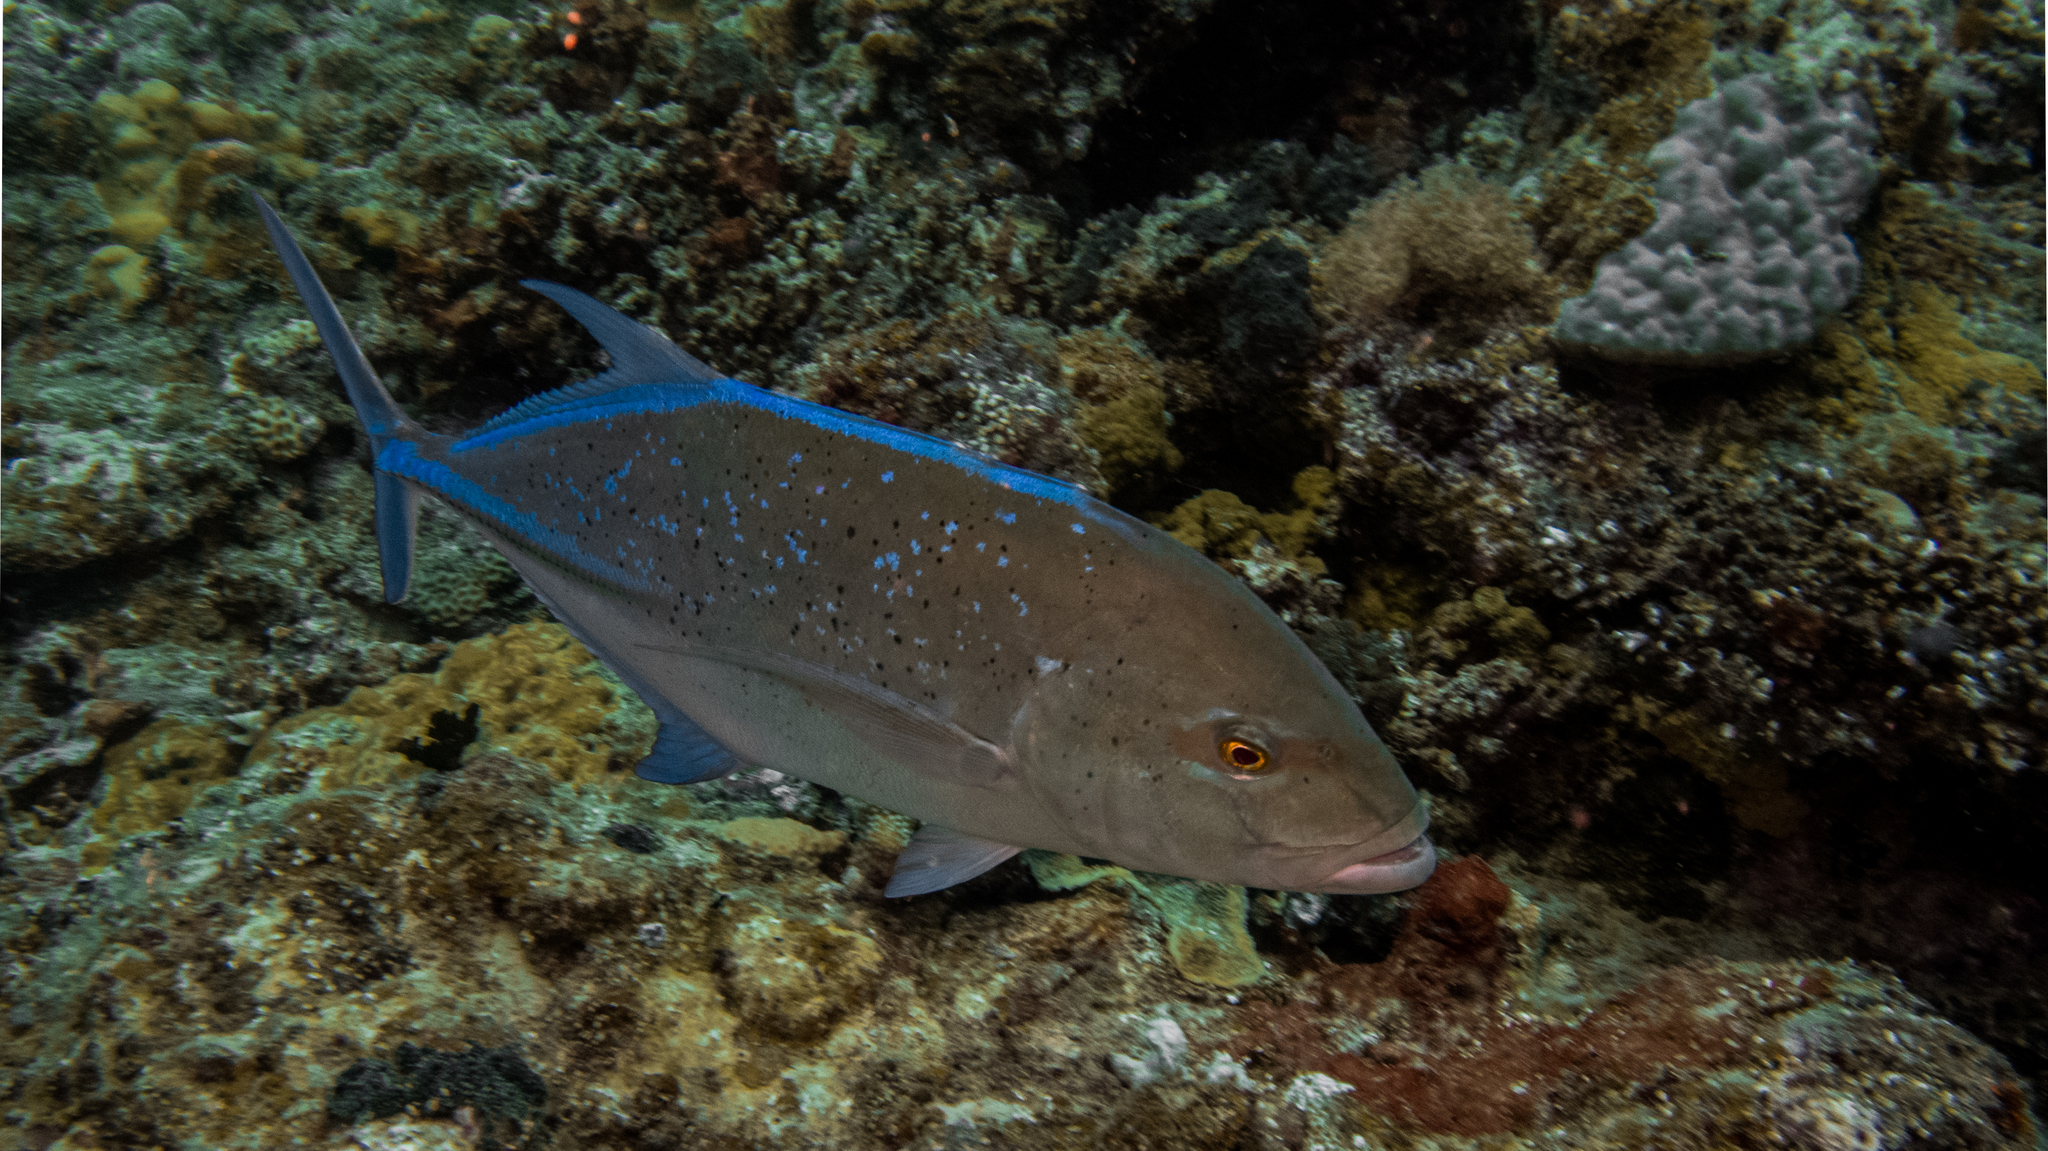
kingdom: Animalia
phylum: Chordata
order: Perciformes
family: Carangidae
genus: Caranx
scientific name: Caranx melampygus
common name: Bluefin trevally
